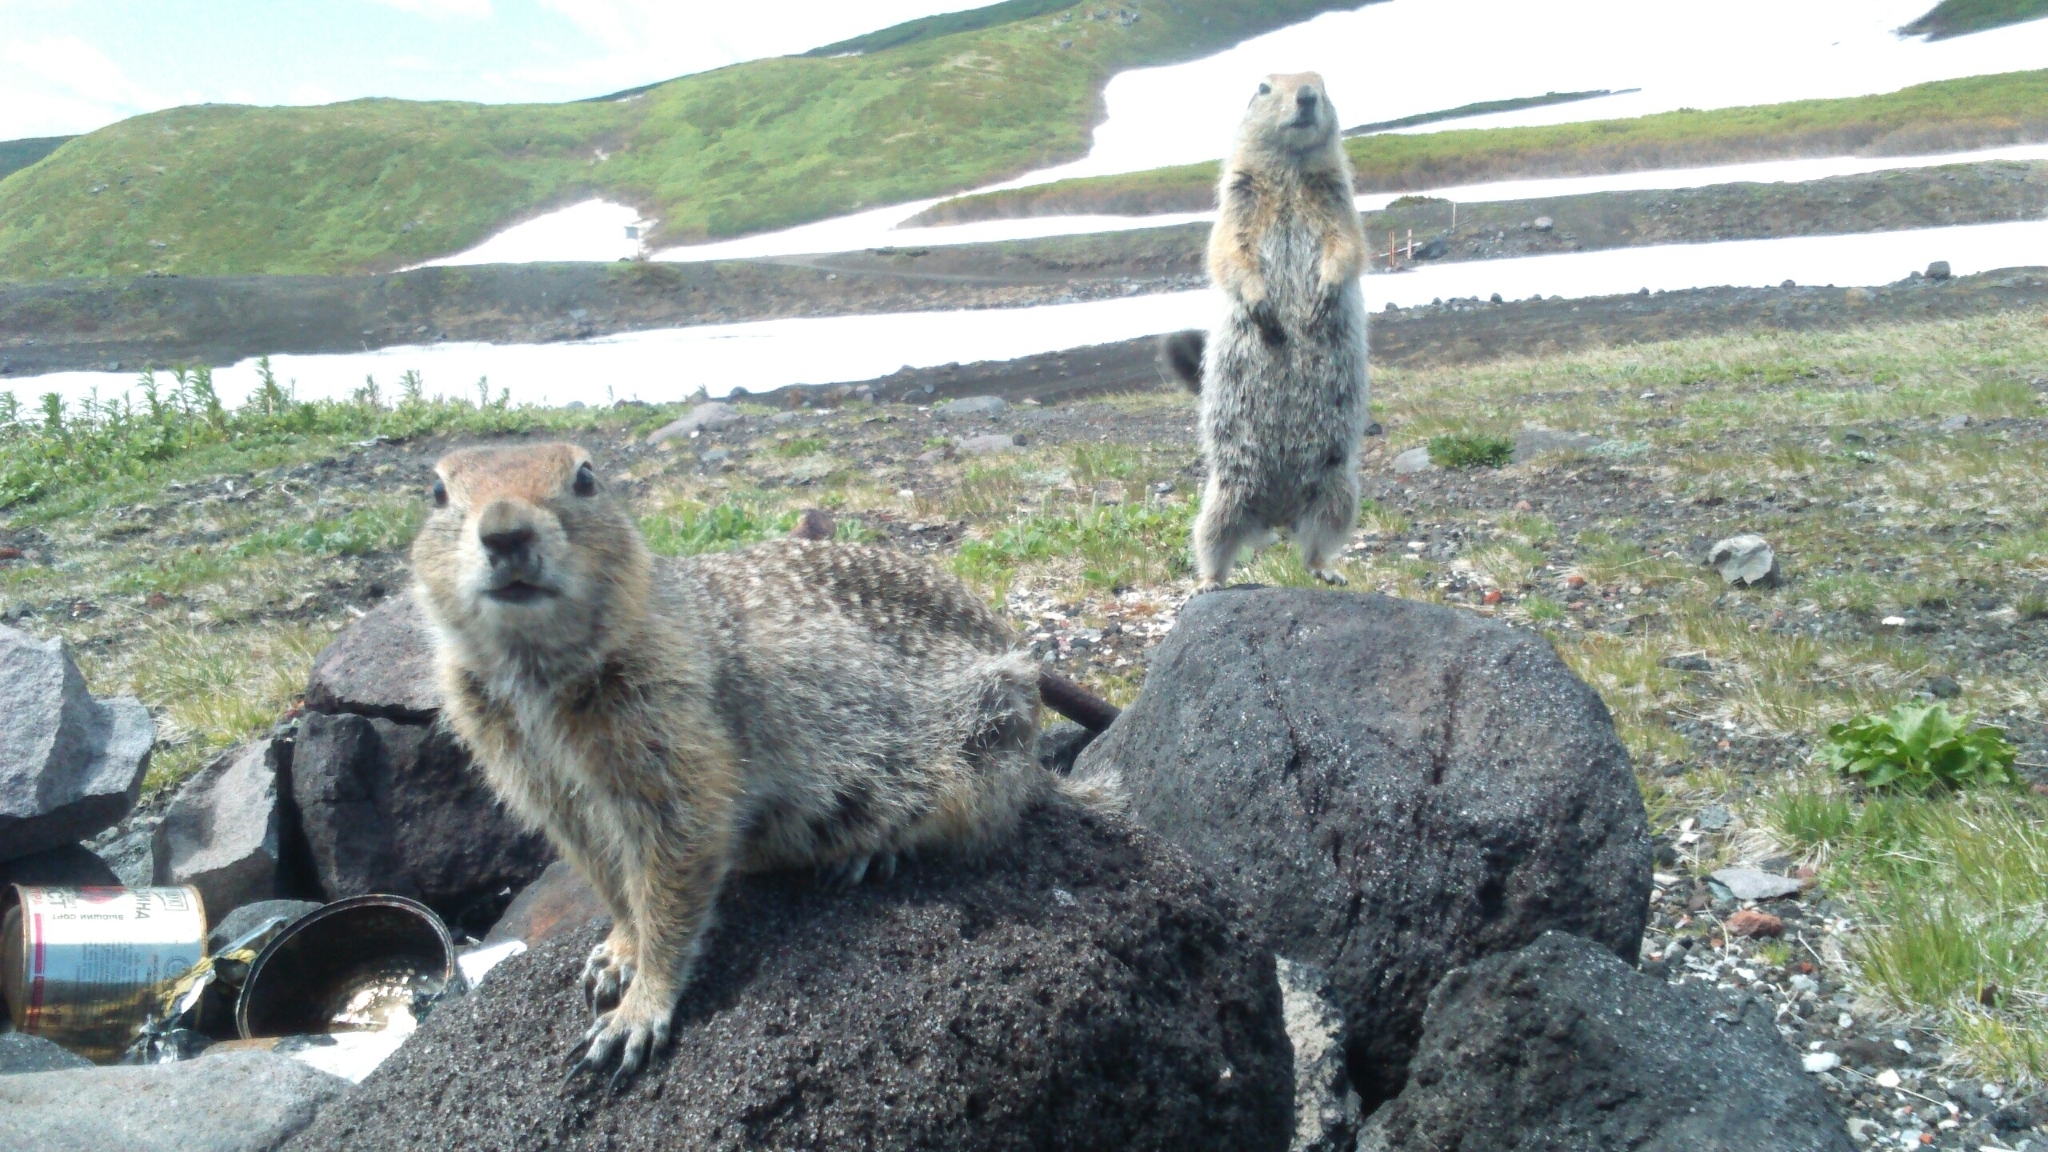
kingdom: Animalia
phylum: Chordata
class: Mammalia
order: Rodentia
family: Sciuridae
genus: Urocitellus
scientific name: Urocitellus parryii
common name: Arctic ground squirrel
